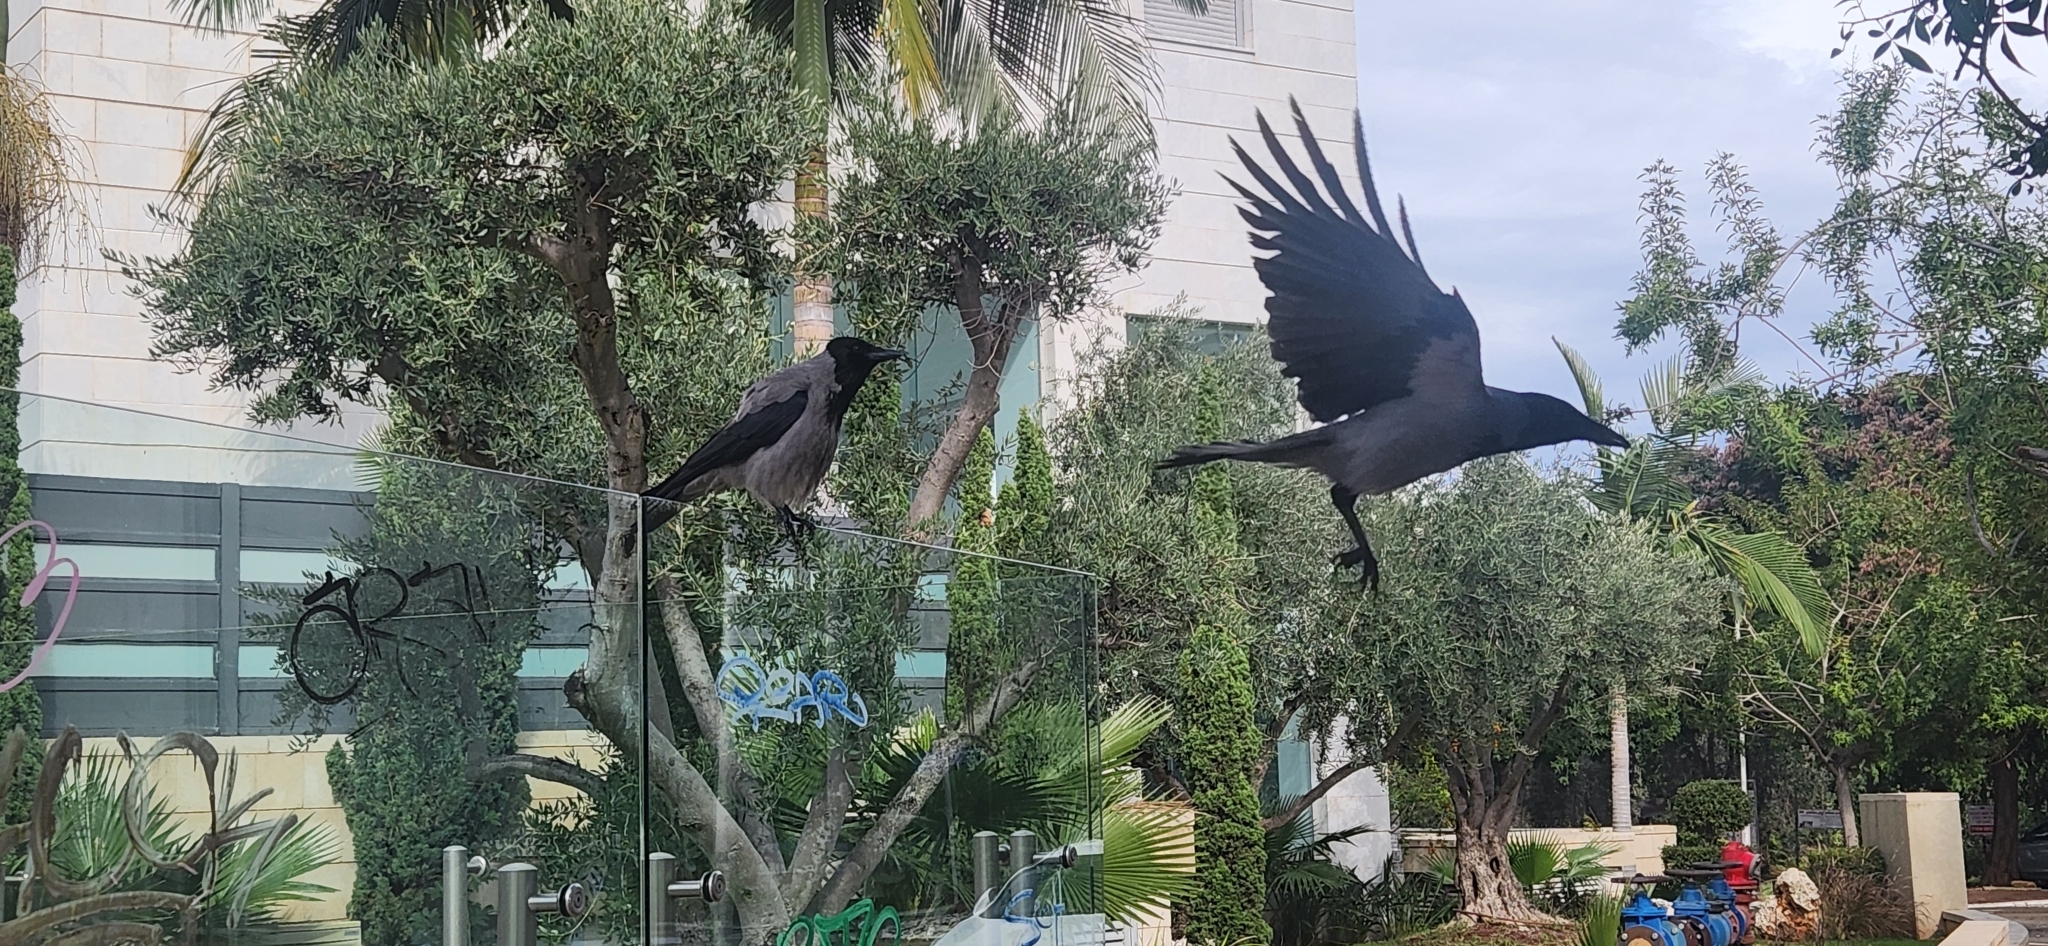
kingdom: Animalia
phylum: Chordata
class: Aves
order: Passeriformes
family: Corvidae
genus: Corvus
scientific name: Corvus cornix
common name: Hooded crow
